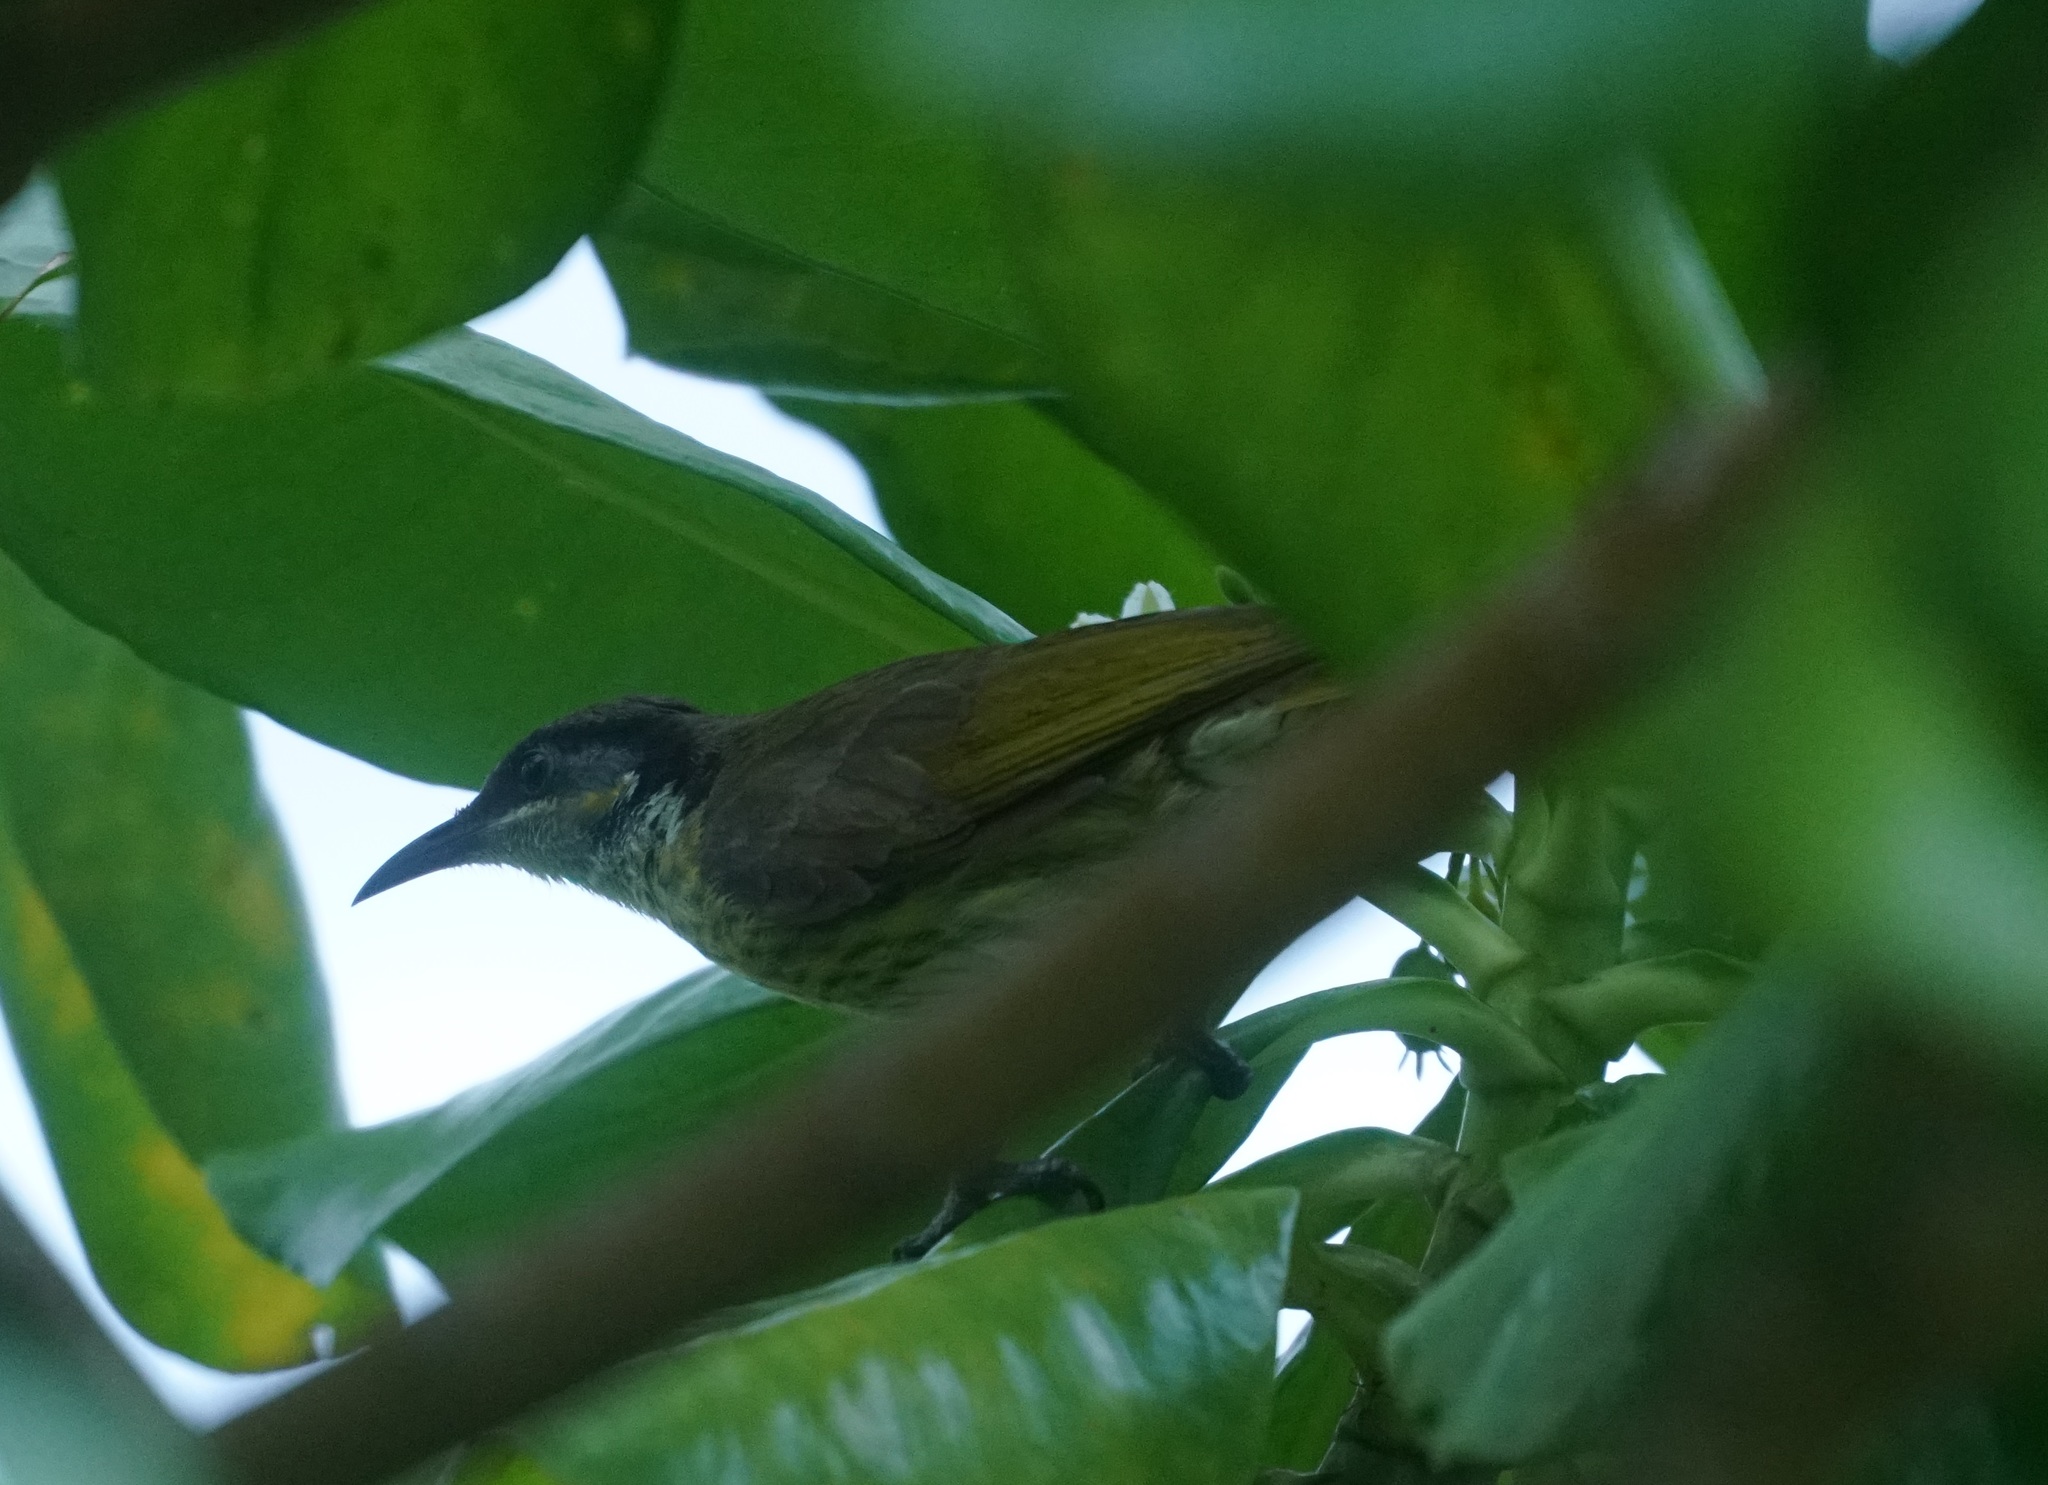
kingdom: Animalia
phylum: Chordata
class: Aves
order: Passeriformes
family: Meliphagidae
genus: Gavicalis
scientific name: Gavicalis versicolor
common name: Varied honeyeater
